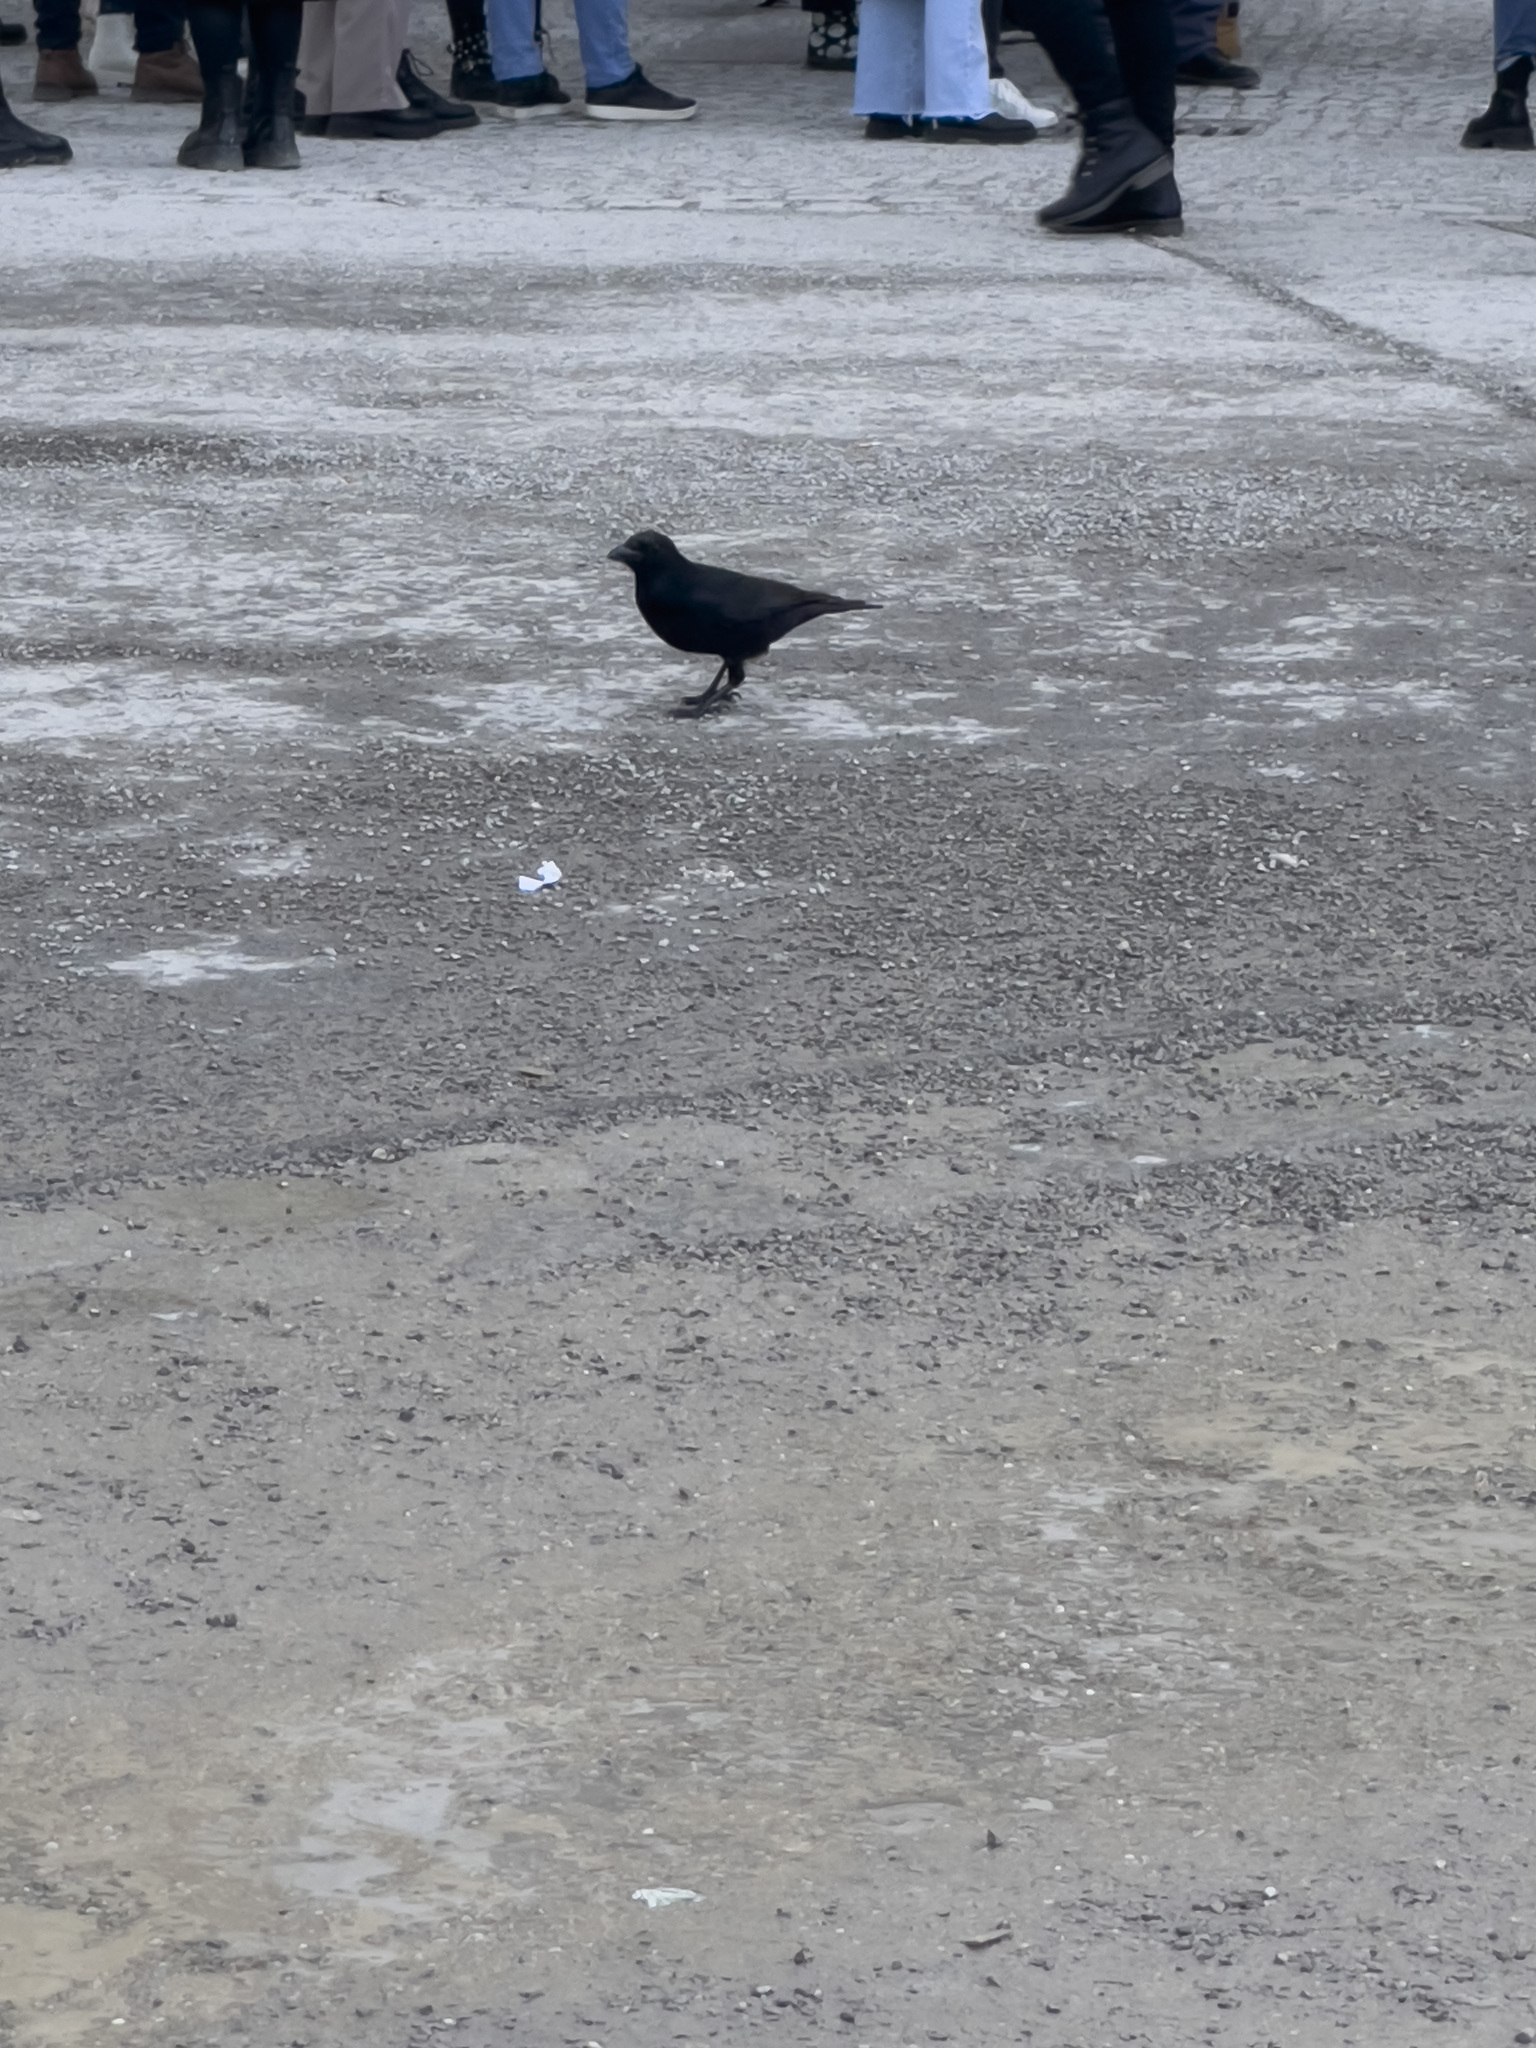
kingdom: Animalia
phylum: Chordata
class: Aves
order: Passeriformes
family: Corvidae
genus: Corvus
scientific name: Corvus corone
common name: Carrion crow
